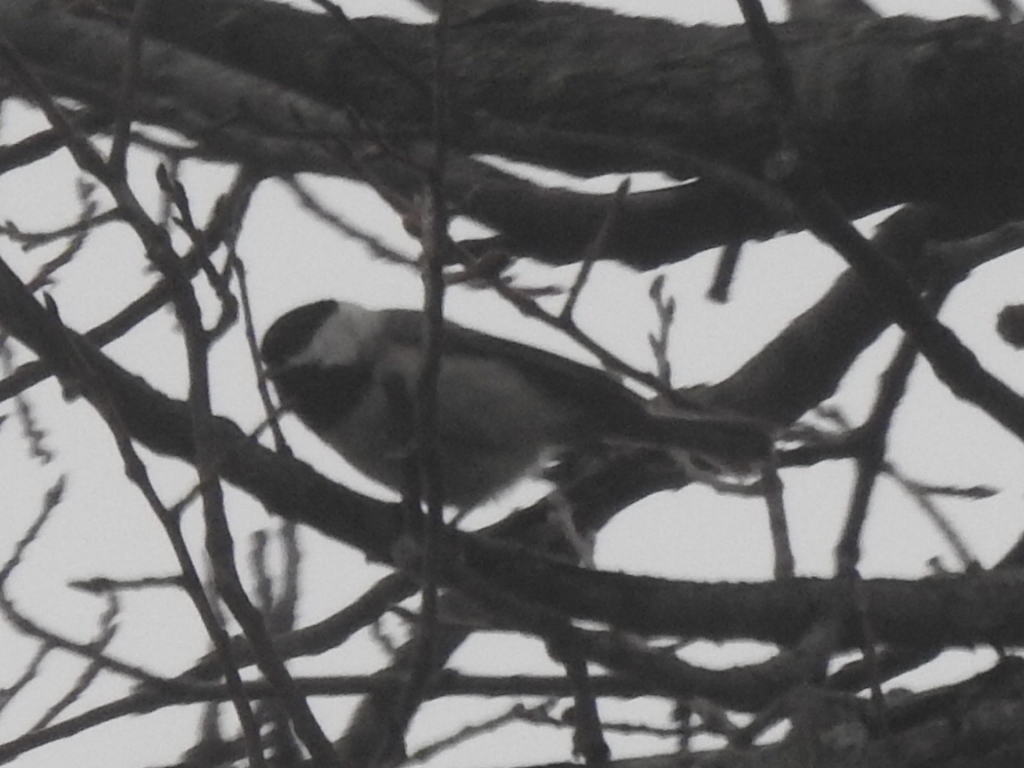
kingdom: Animalia
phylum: Chordata
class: Aves
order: Passeriformes
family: Paridae
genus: Poecile
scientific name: Poecile carolinensis
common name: Carolina chickadee
